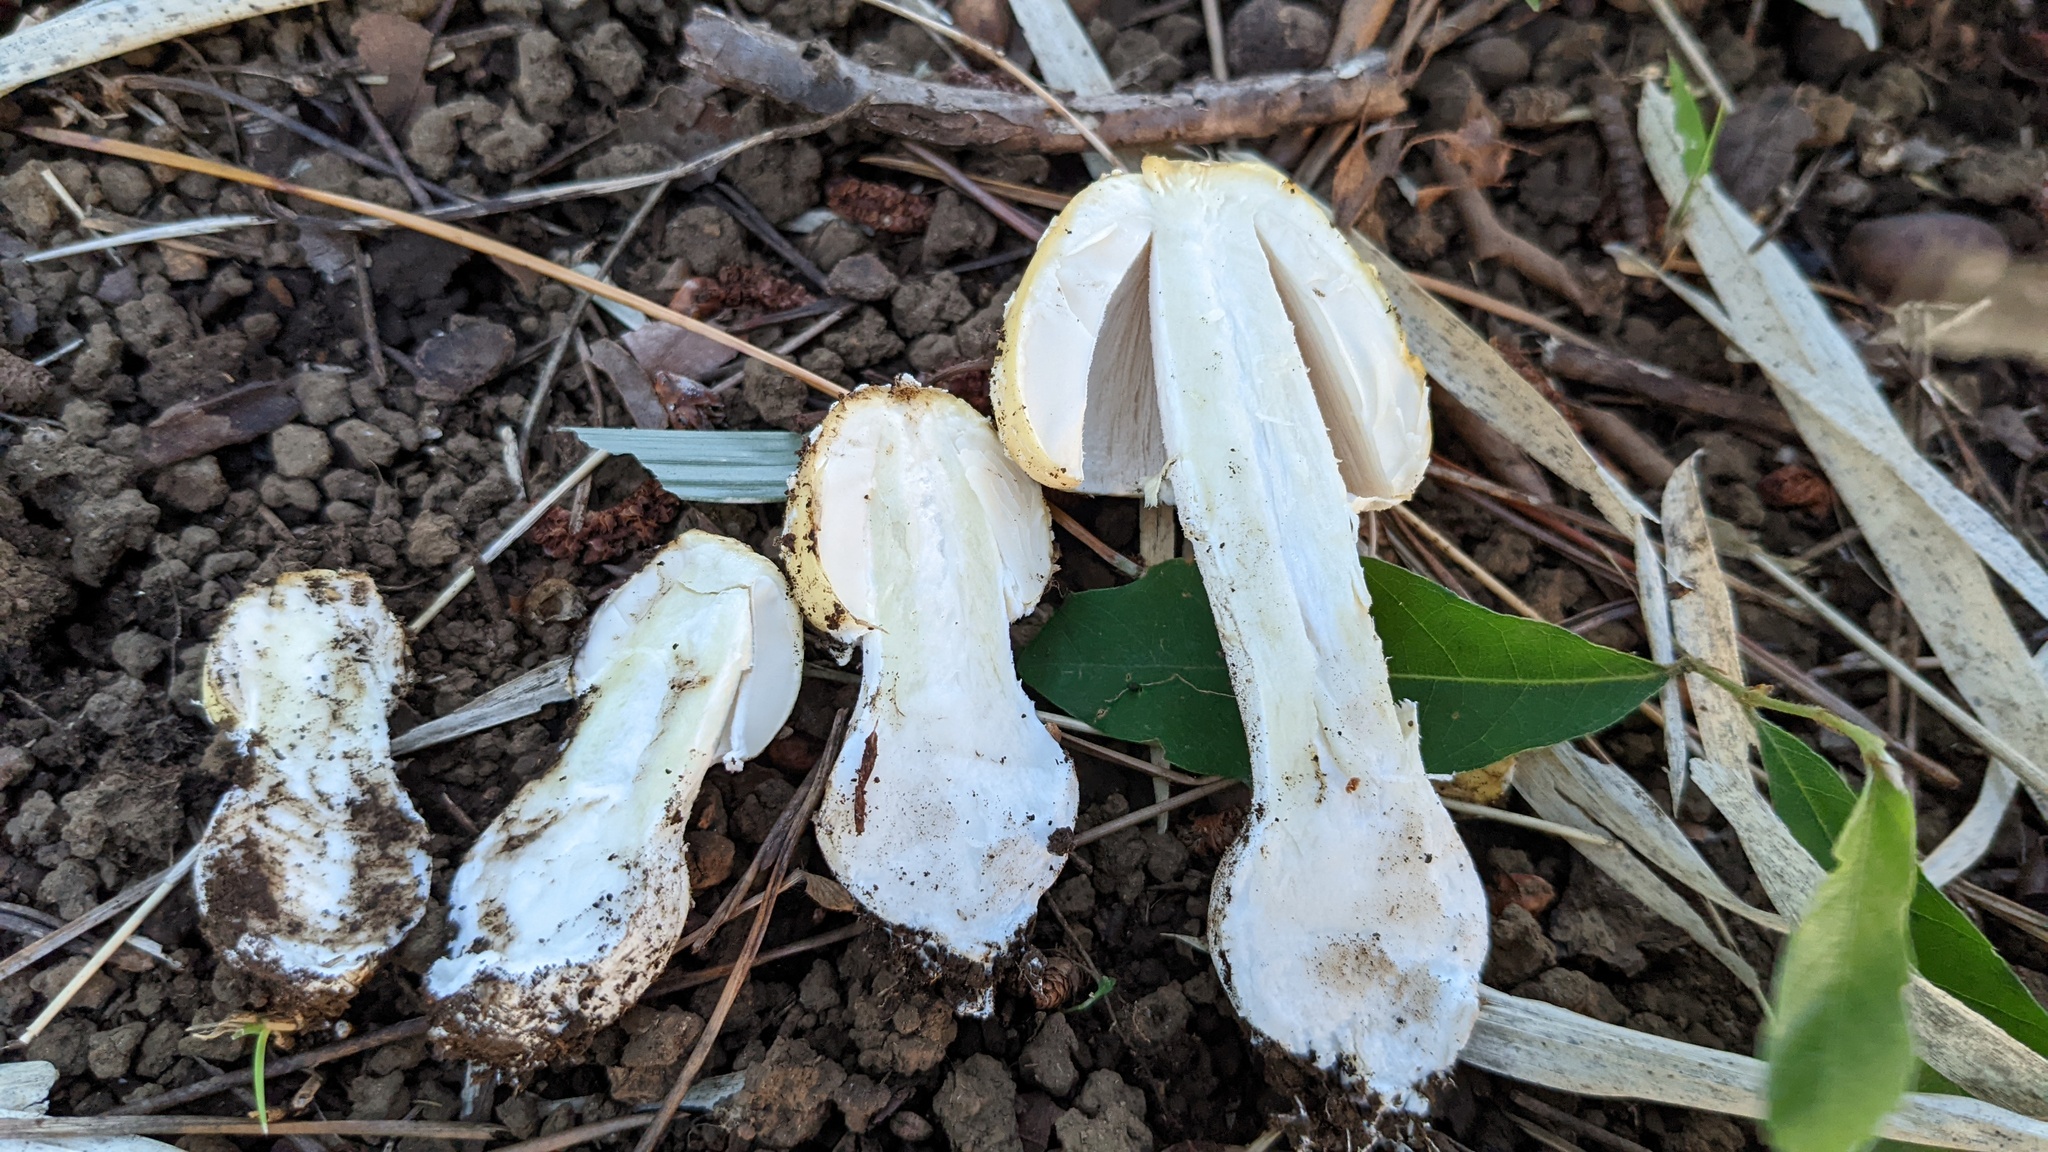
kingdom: Fungi
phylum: Basidiomycota
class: Agaricomycetes
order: Agaricales
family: Amanitaceae
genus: Amanita
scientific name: Amanita orientigemmata
